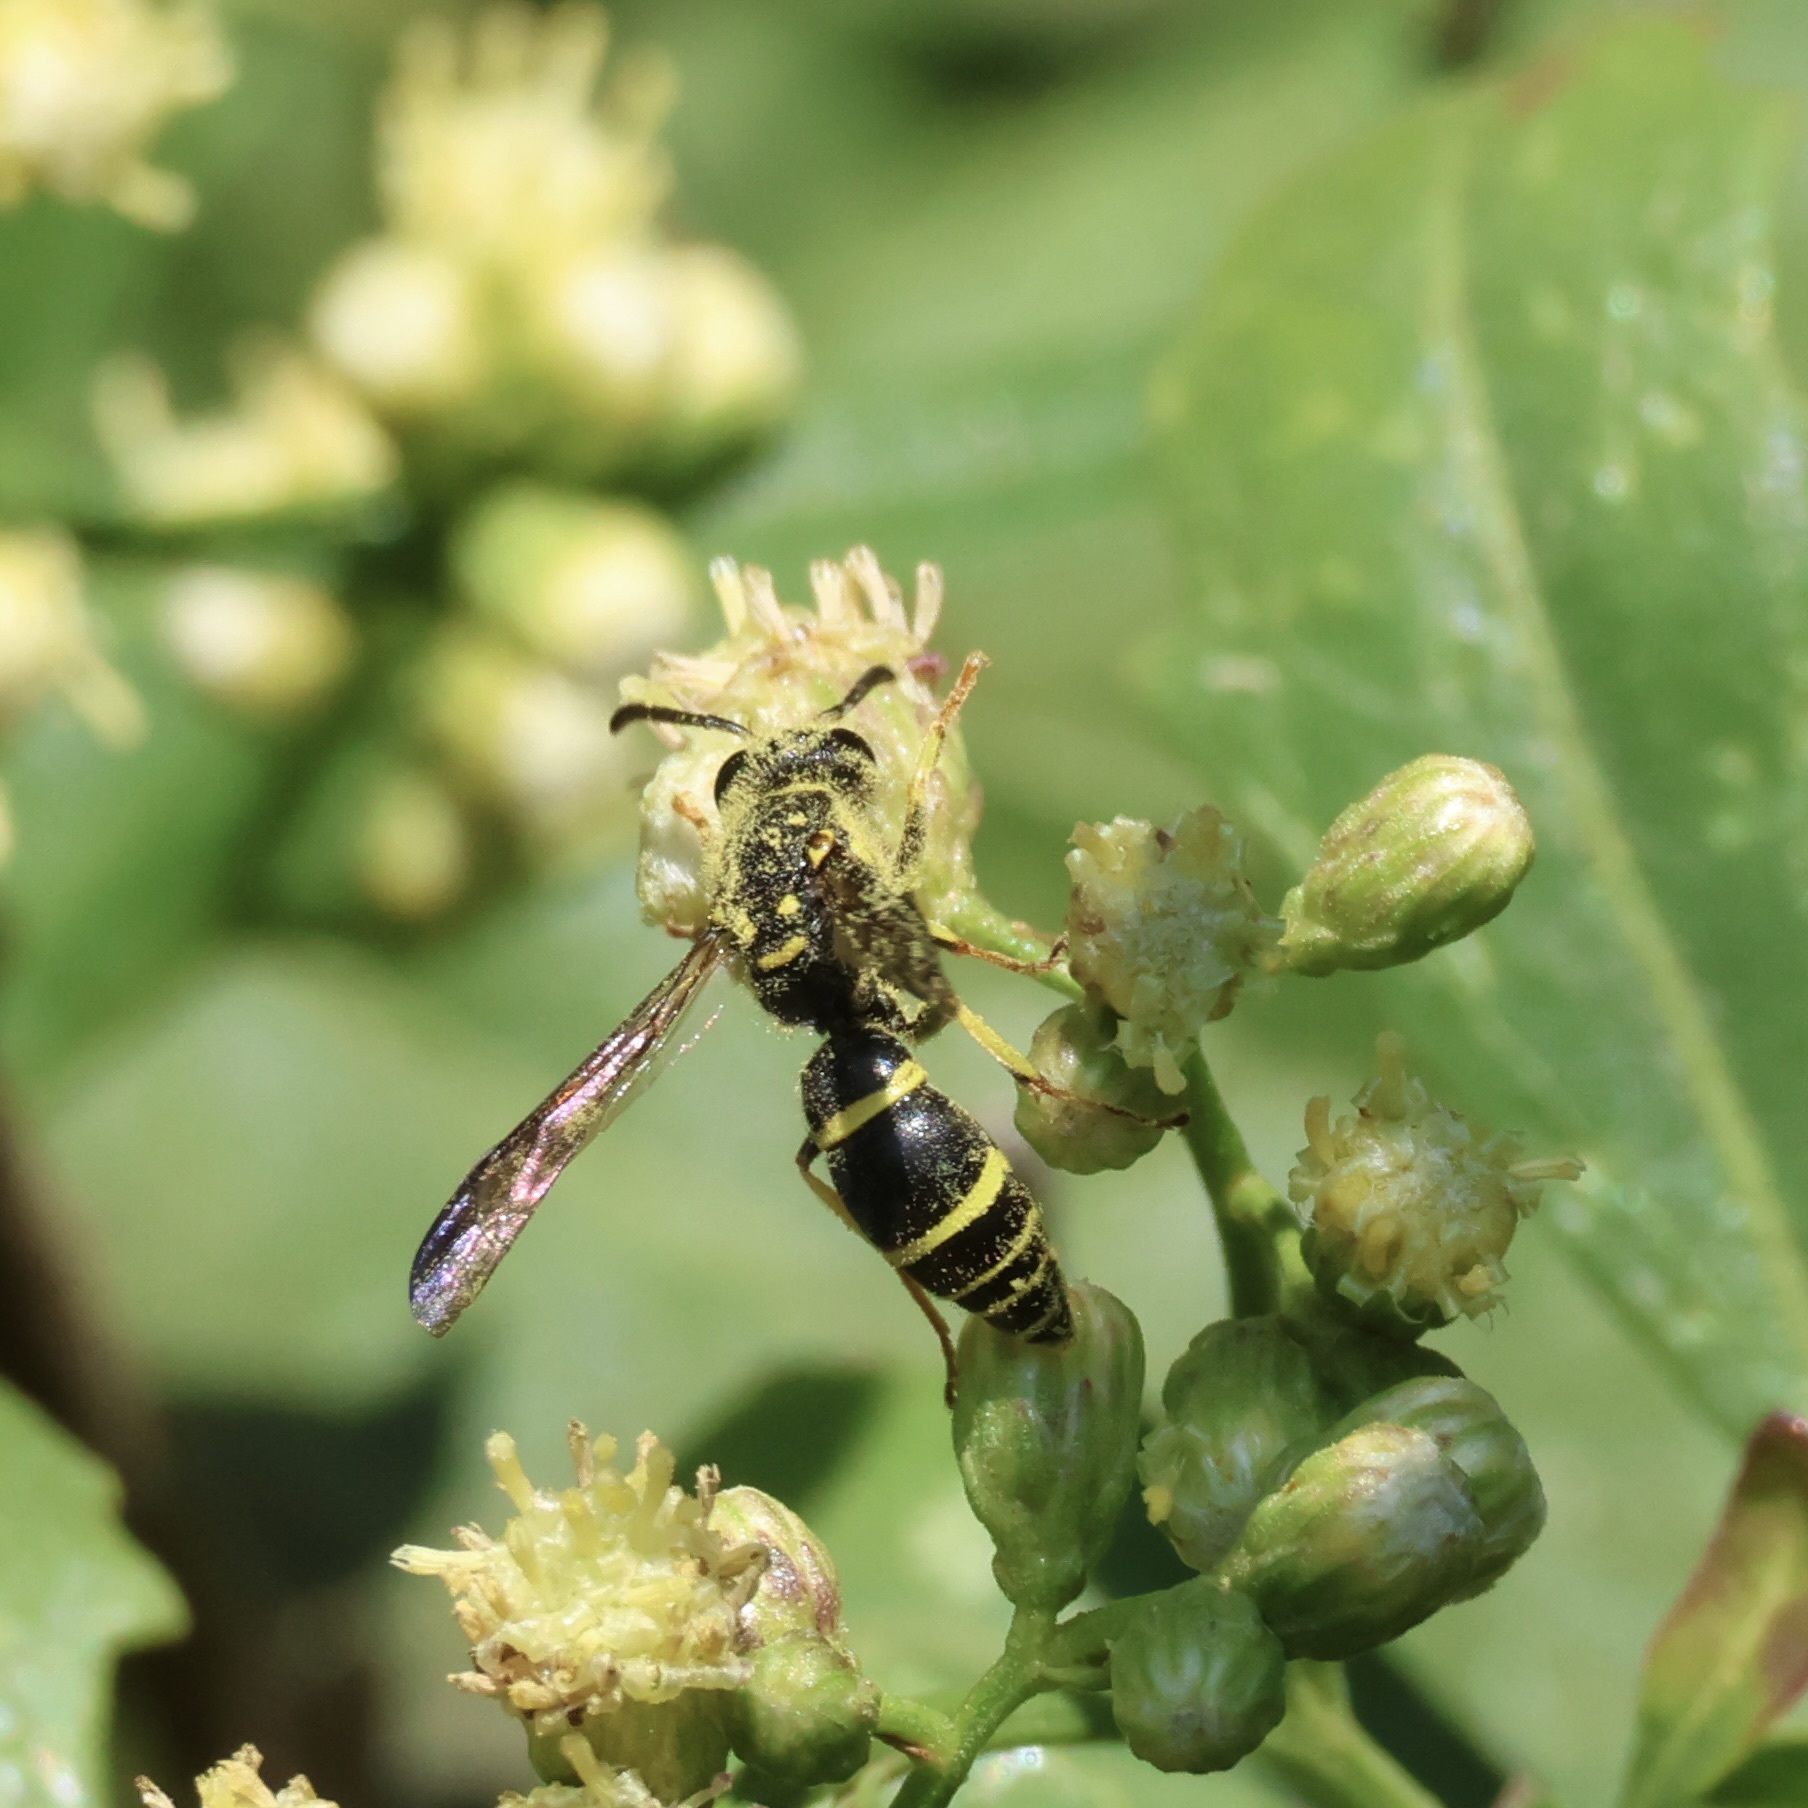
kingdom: Animalia
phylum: Arthropoda
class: Insecta
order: Hymenoptera
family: Vespidae
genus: Ancistrocerus
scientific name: Ancistrocerus adiabatus
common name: Bramble mason wasp
